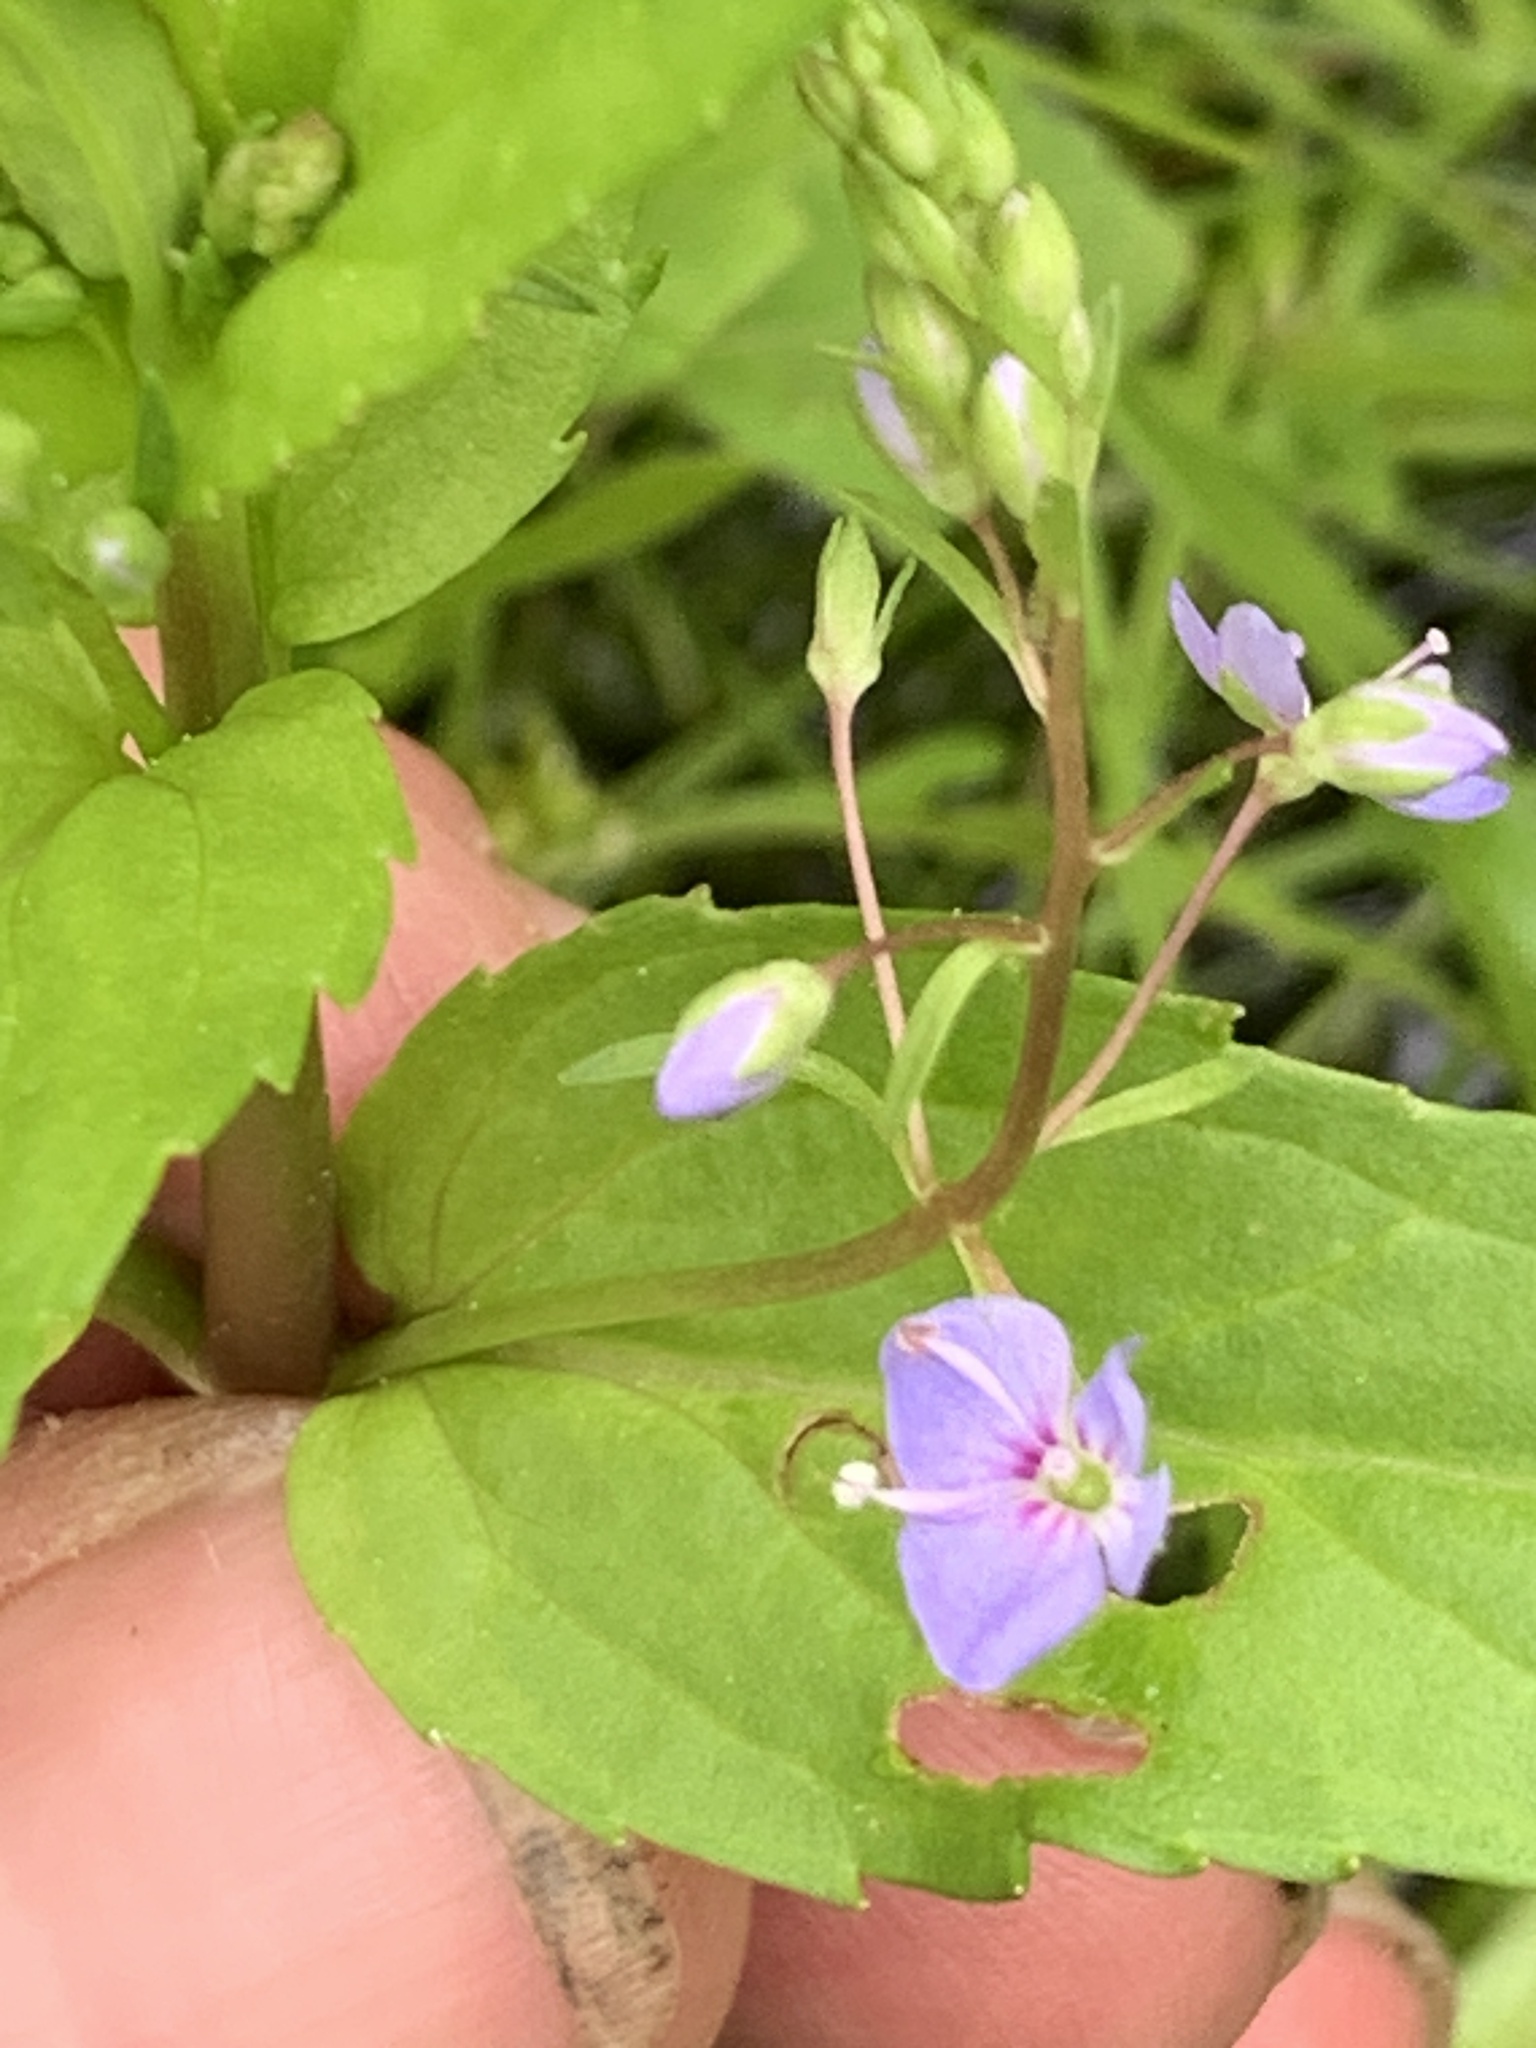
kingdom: Plantae
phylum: Tracheophyta
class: Magnoliopsida
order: Lamiales
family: Plantaginaceae
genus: Veronica
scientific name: Veronica americana
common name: American brooklime
